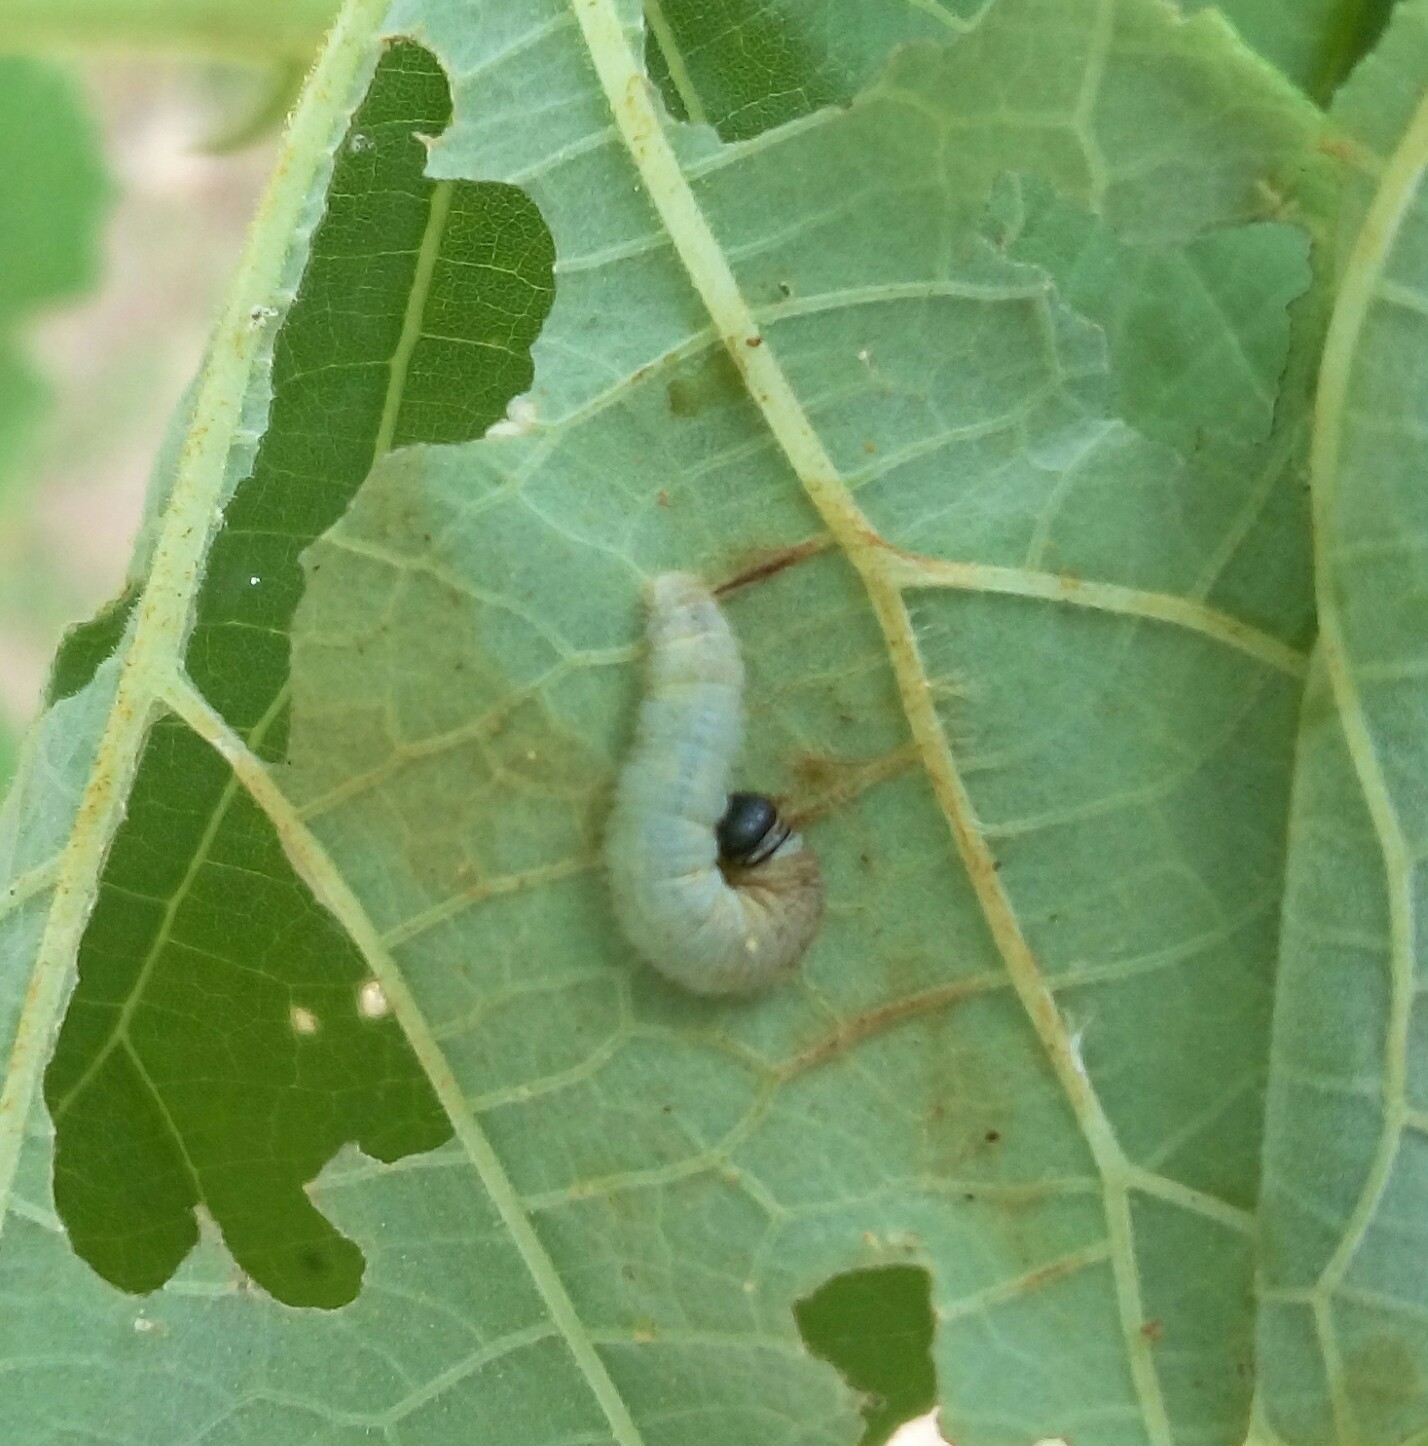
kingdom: Animalia
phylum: Arthropoda
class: Insecta
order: Lepidoptera
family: Hesperiidae
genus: Gomalia
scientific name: Gomalia elma
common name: Green-marbled skipper
